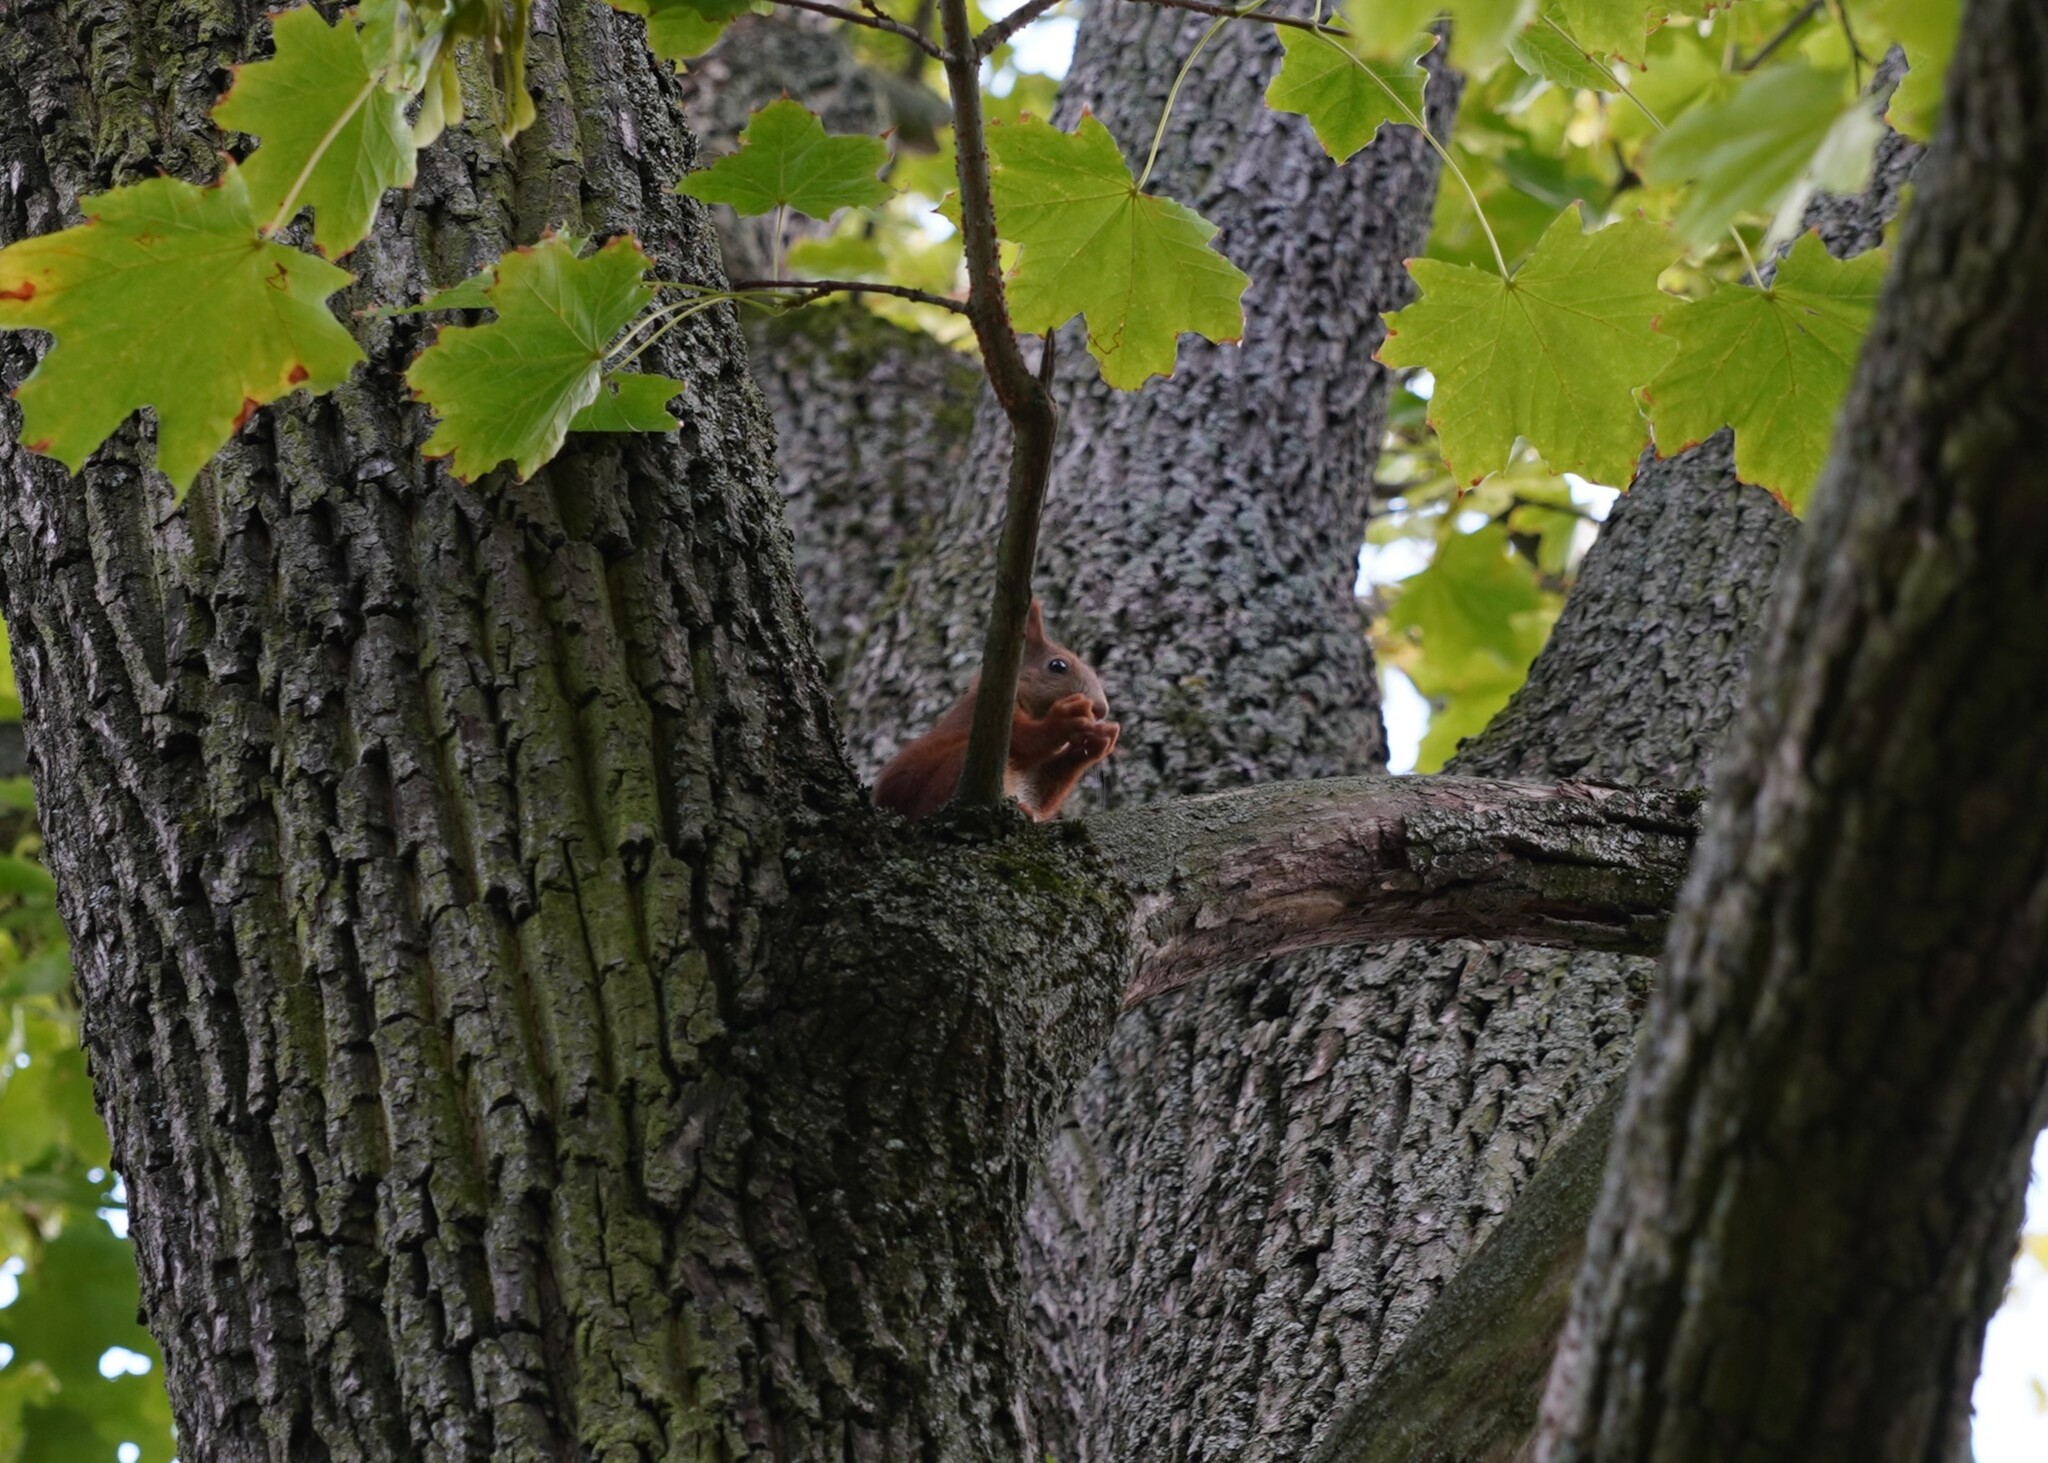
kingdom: Animalia
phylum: Chordata
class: Mammalia
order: Rodentia
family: Sciuridae
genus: Sciurus
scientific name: Sciurus vulgaris
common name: Eurasian red squirrel
